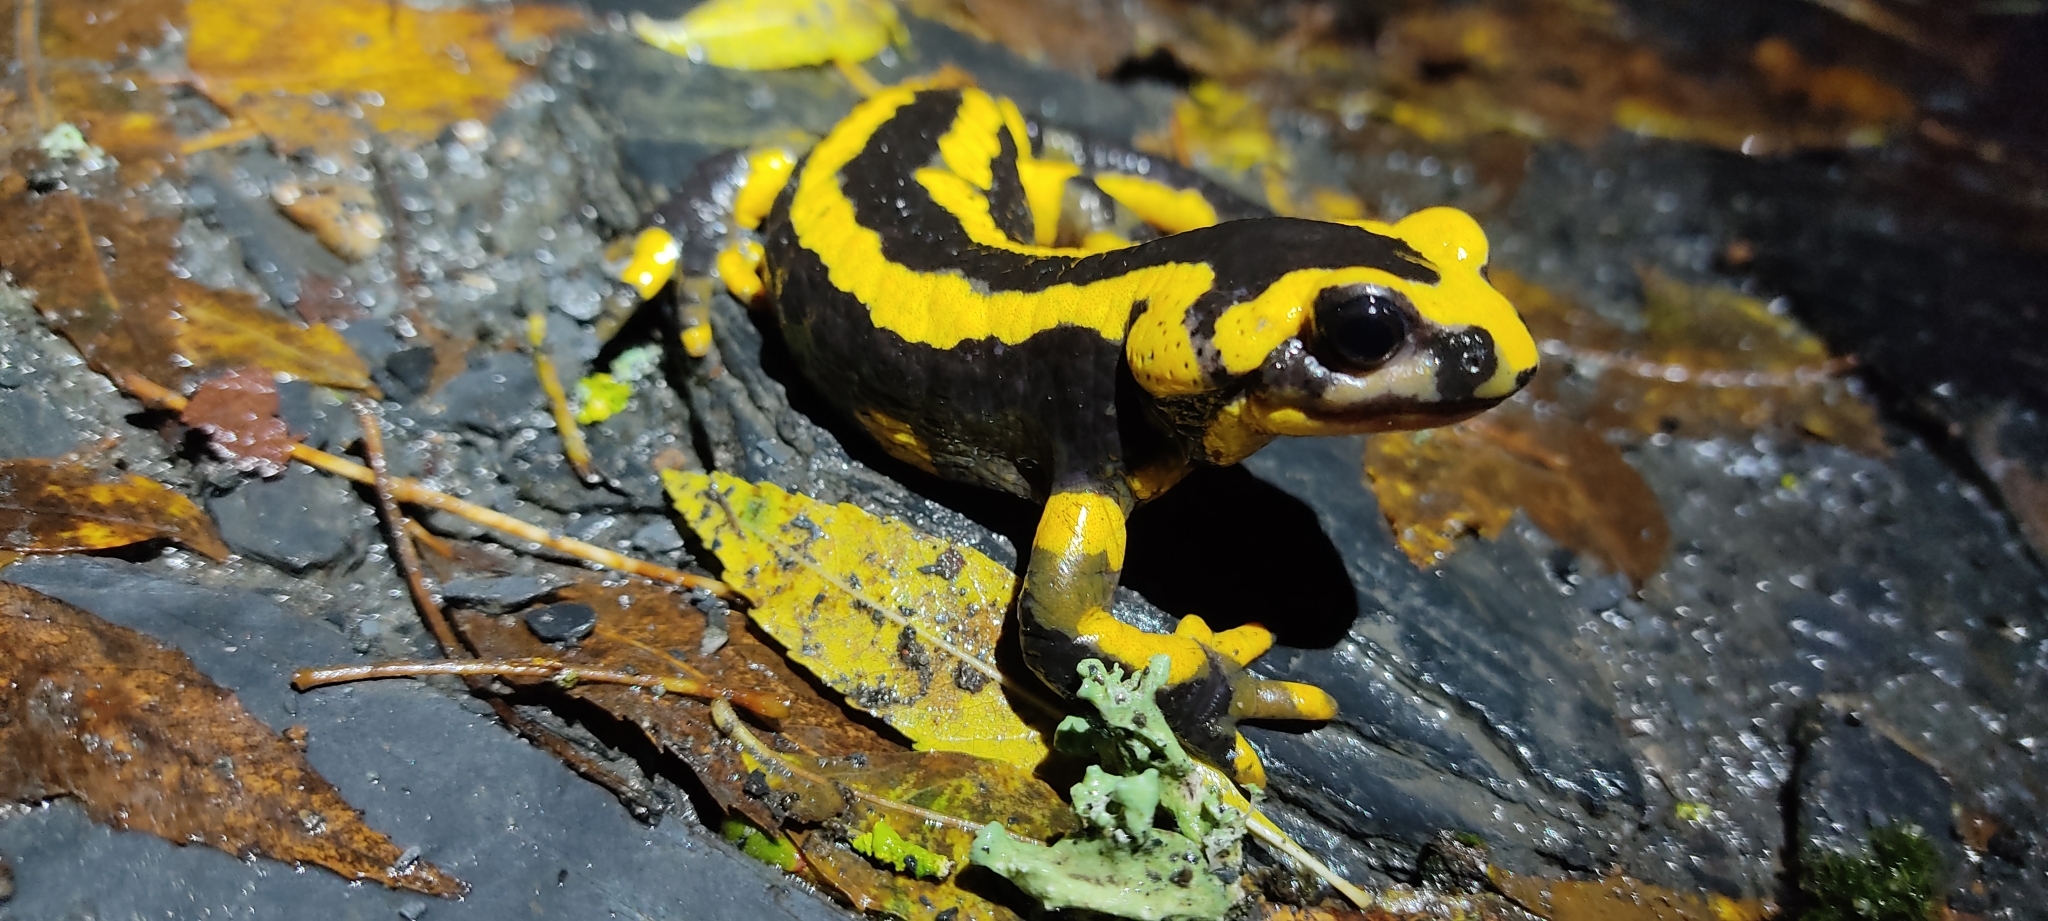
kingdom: Animalia
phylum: Chordata
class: Amphibia
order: Caudata
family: Salamandridae
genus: Salamandra
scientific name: Salamandra salamandra
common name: Fire salamander
